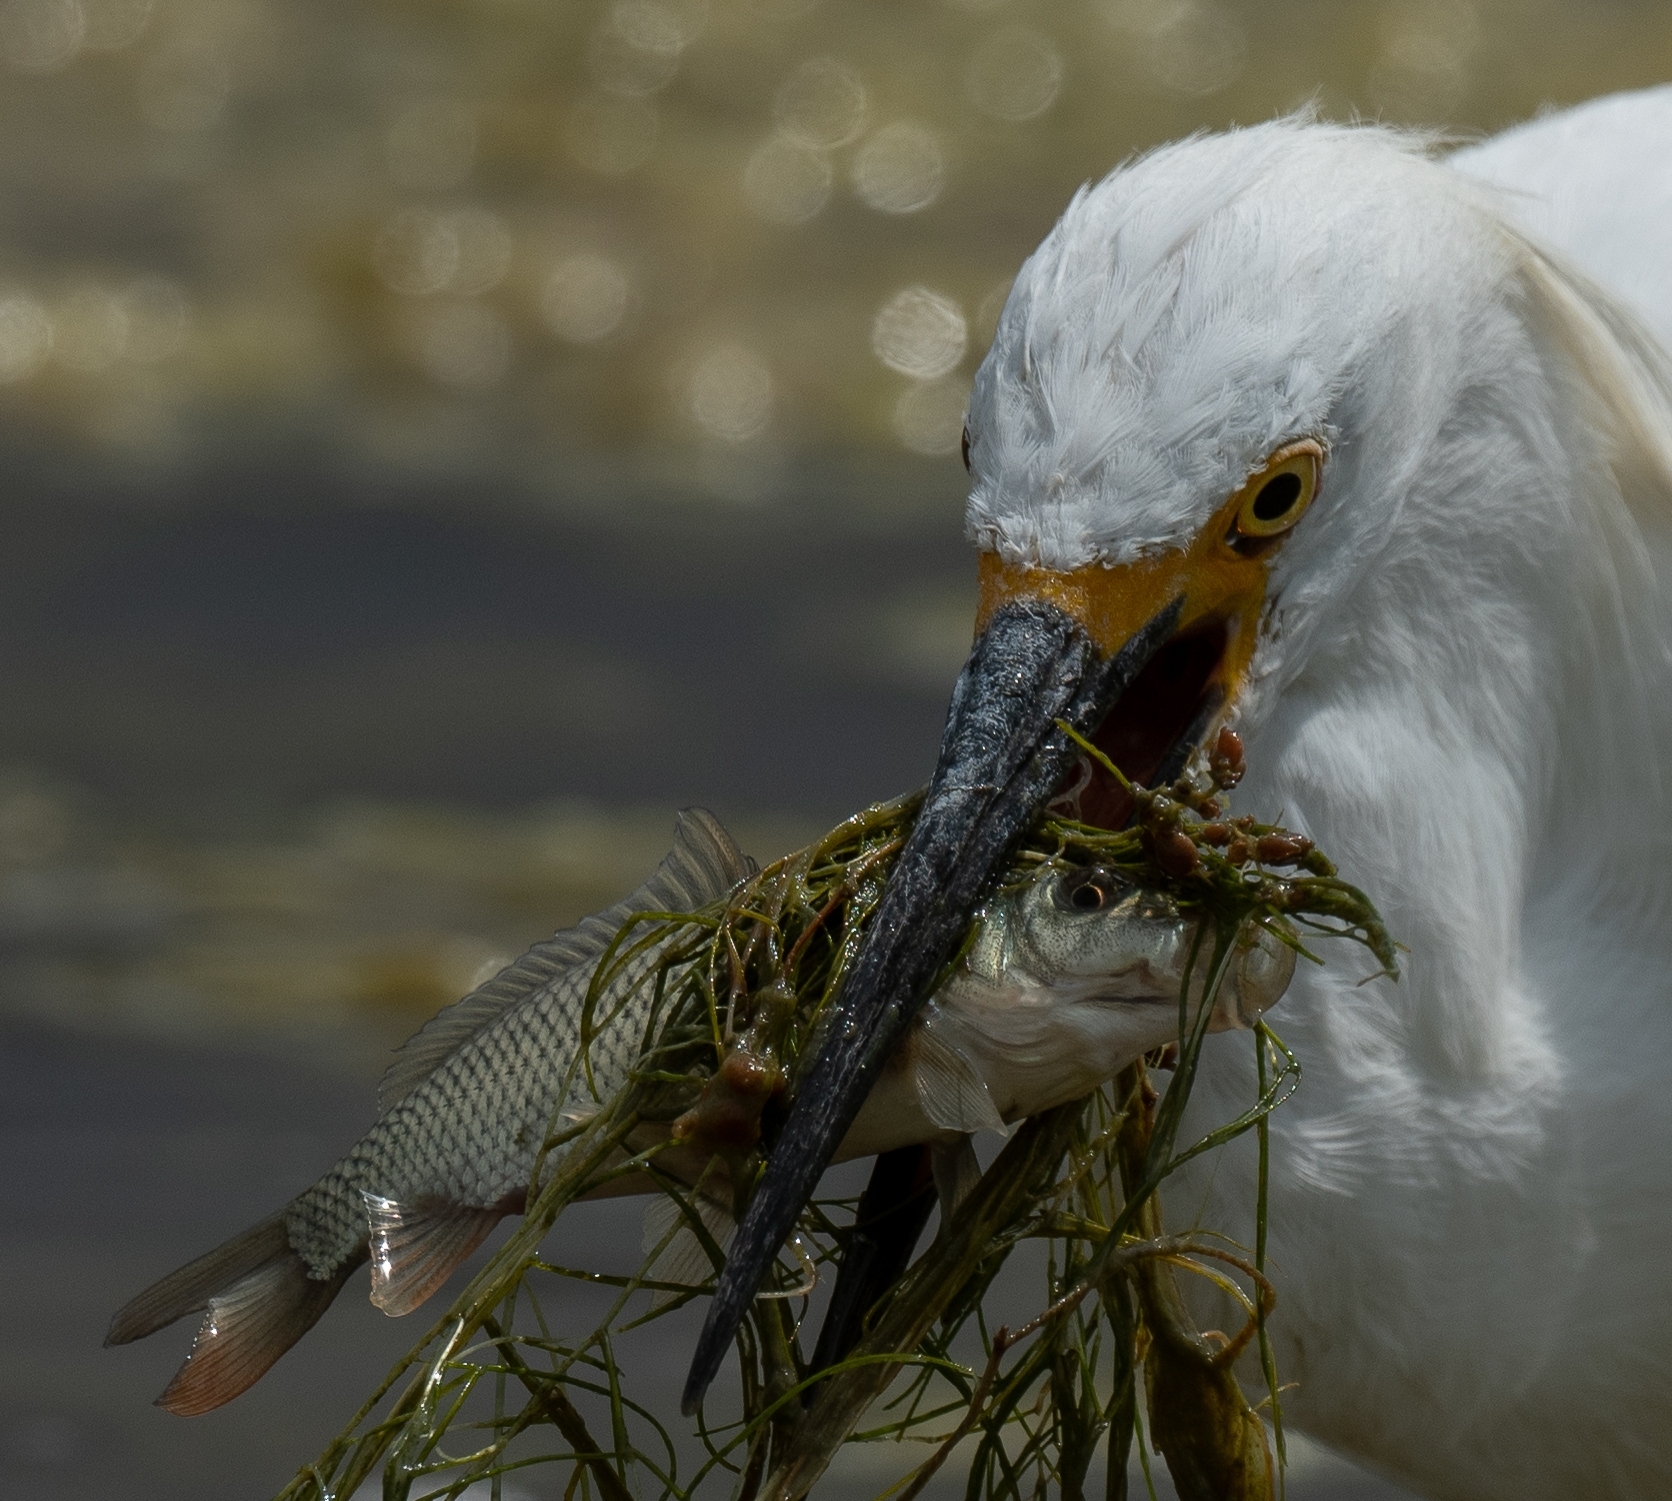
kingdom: Animalia
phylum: Chordata
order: Cypriniformes
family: Cyprinidae
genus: Cyprinus
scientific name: Cyprinus carpio
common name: Common carp
